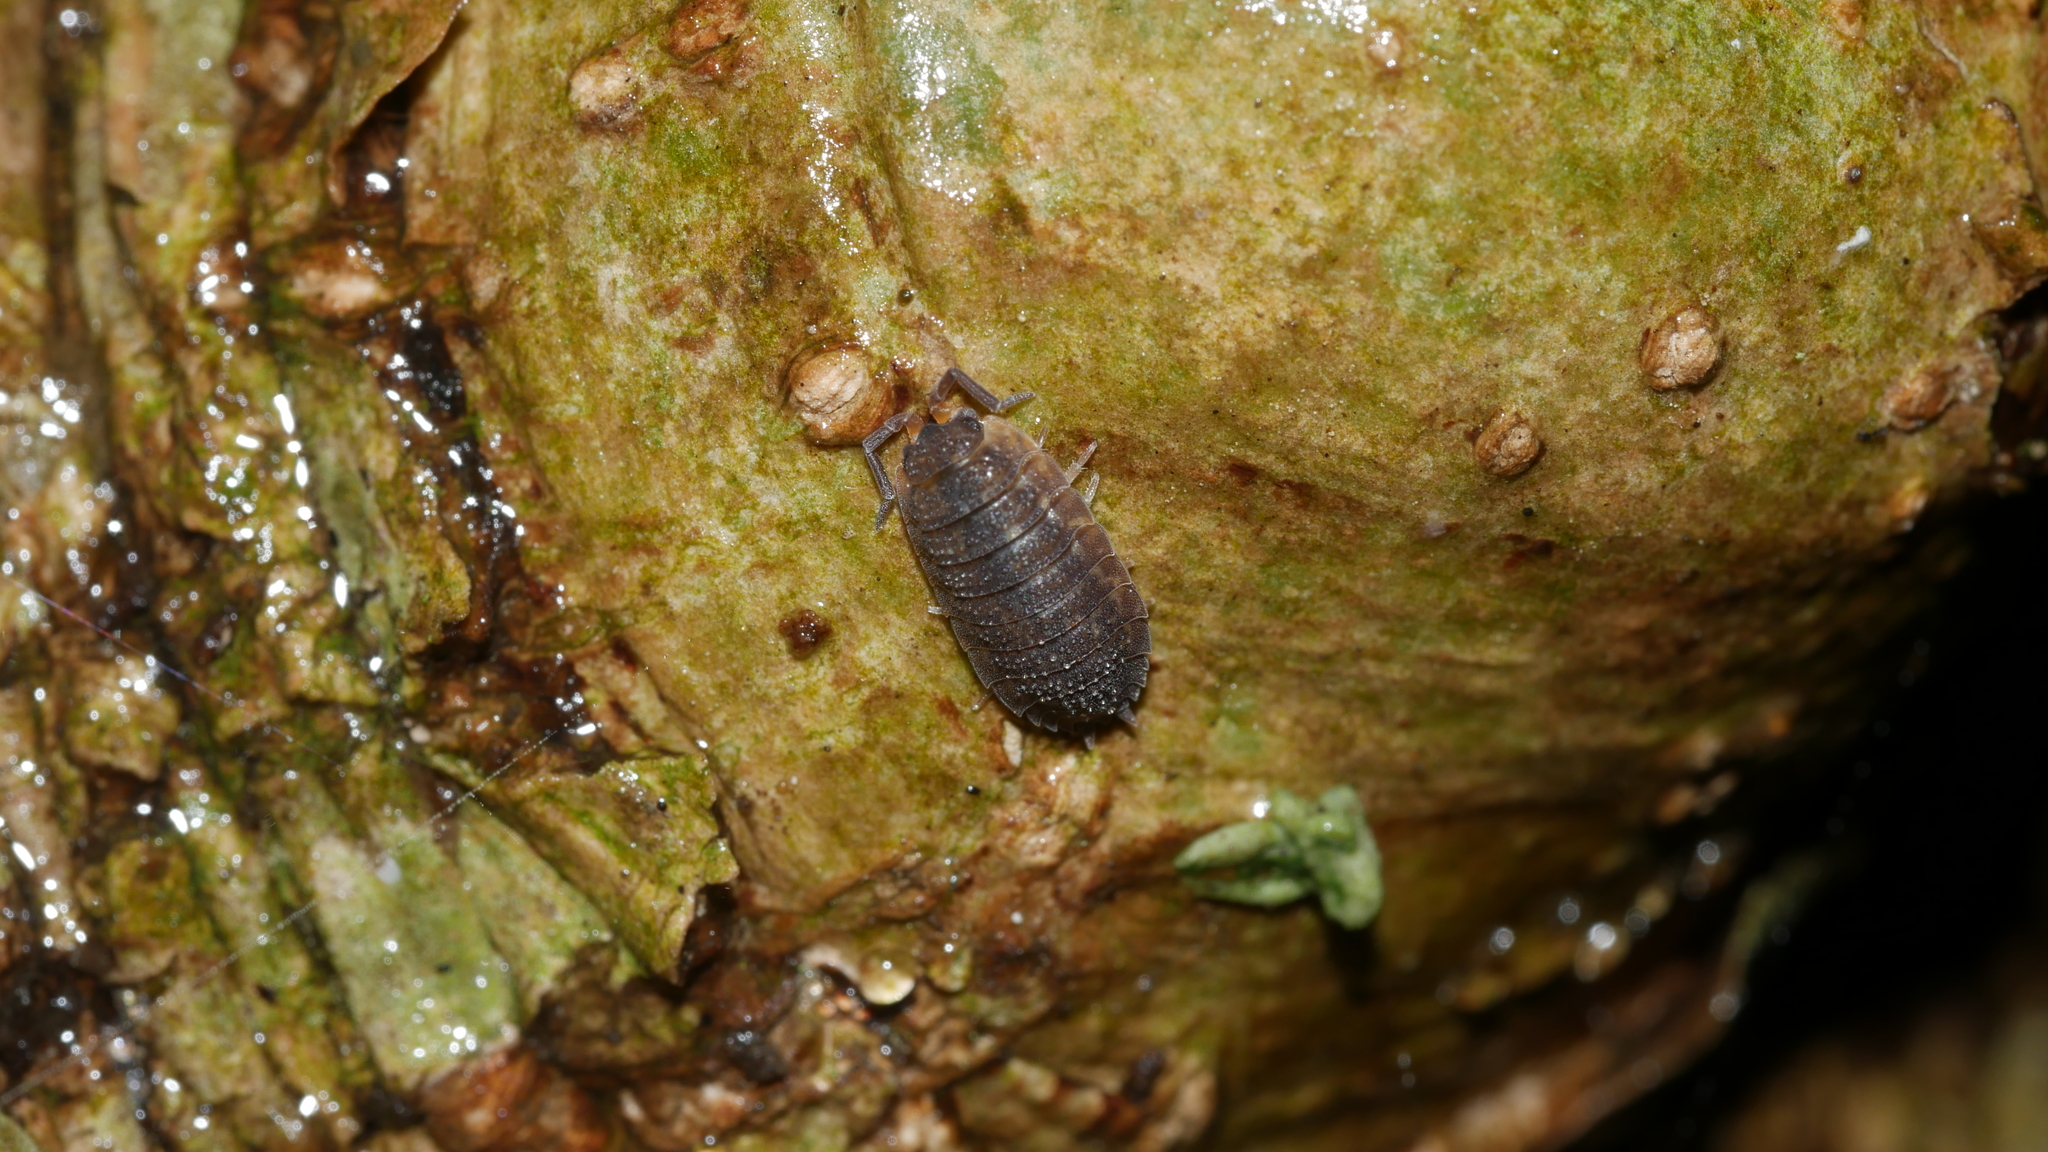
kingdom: Animalia
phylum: Arthropoda
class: Malacostraca
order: Isopoda
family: Porcellionidae
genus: Porcellio
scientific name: Porcellio scaber
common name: Common rough woodlouse
